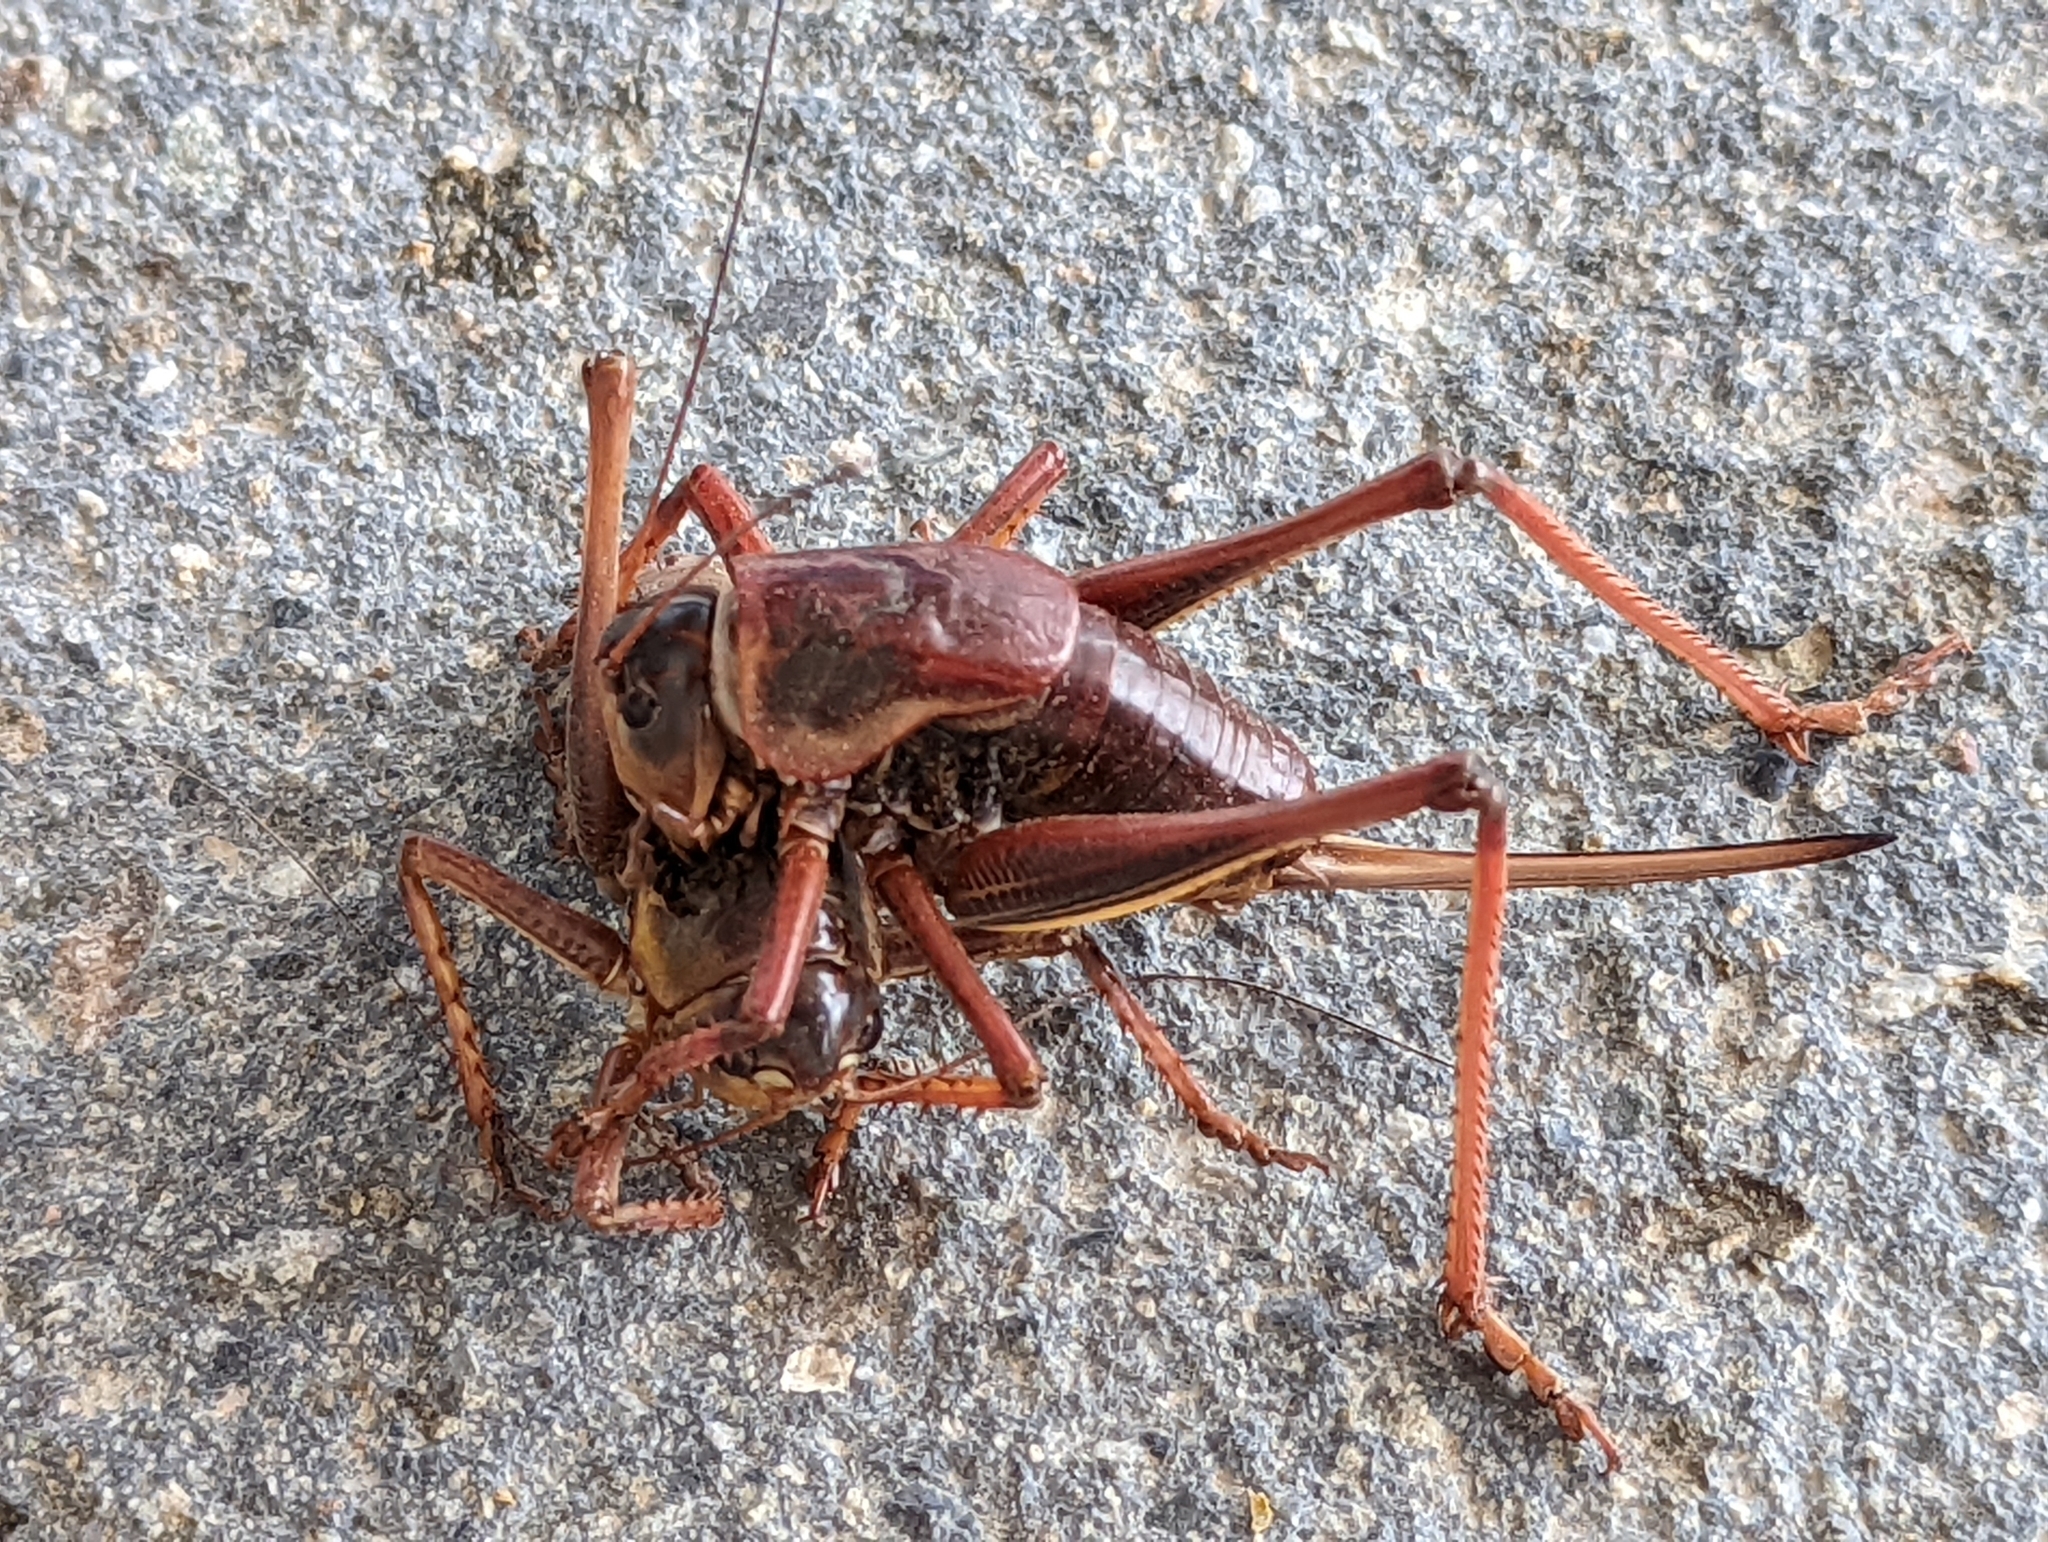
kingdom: Animalia
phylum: Arthropoda
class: Insecta
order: Orthoptera
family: Tettigoniidae
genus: Anabrus
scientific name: Anabrus simplex
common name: Mormon cricket
